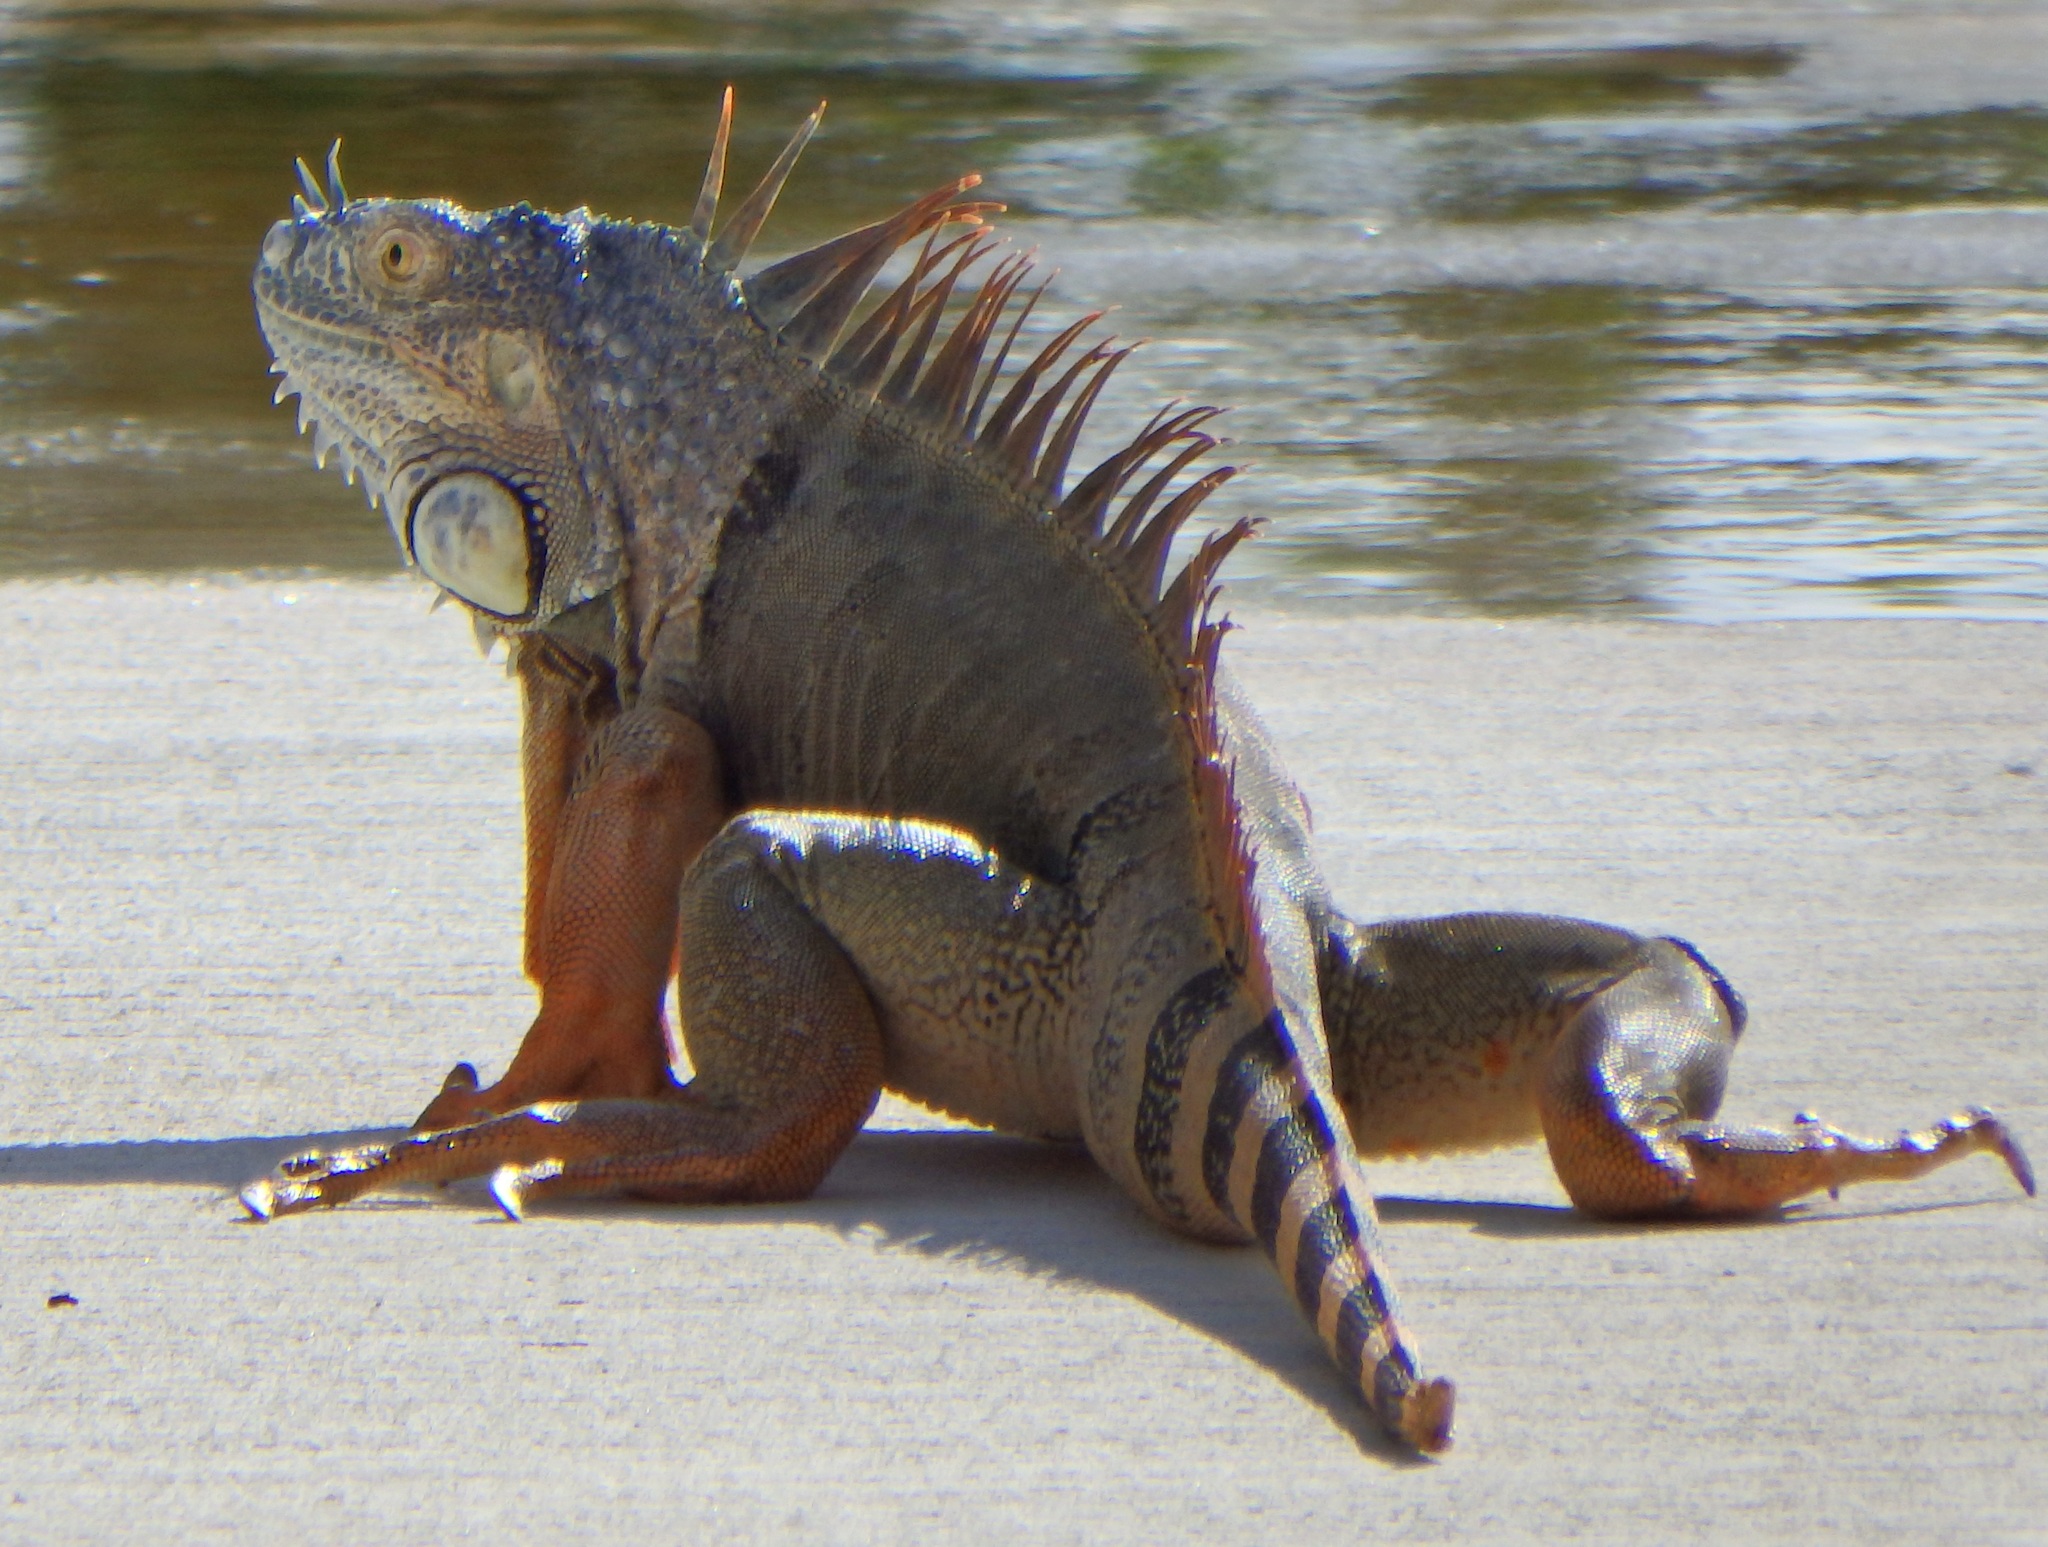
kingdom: Animalia
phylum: Chordata
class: Squamata
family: Iguanidae
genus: Iguana
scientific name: Iguana iguana
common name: Green iguana
